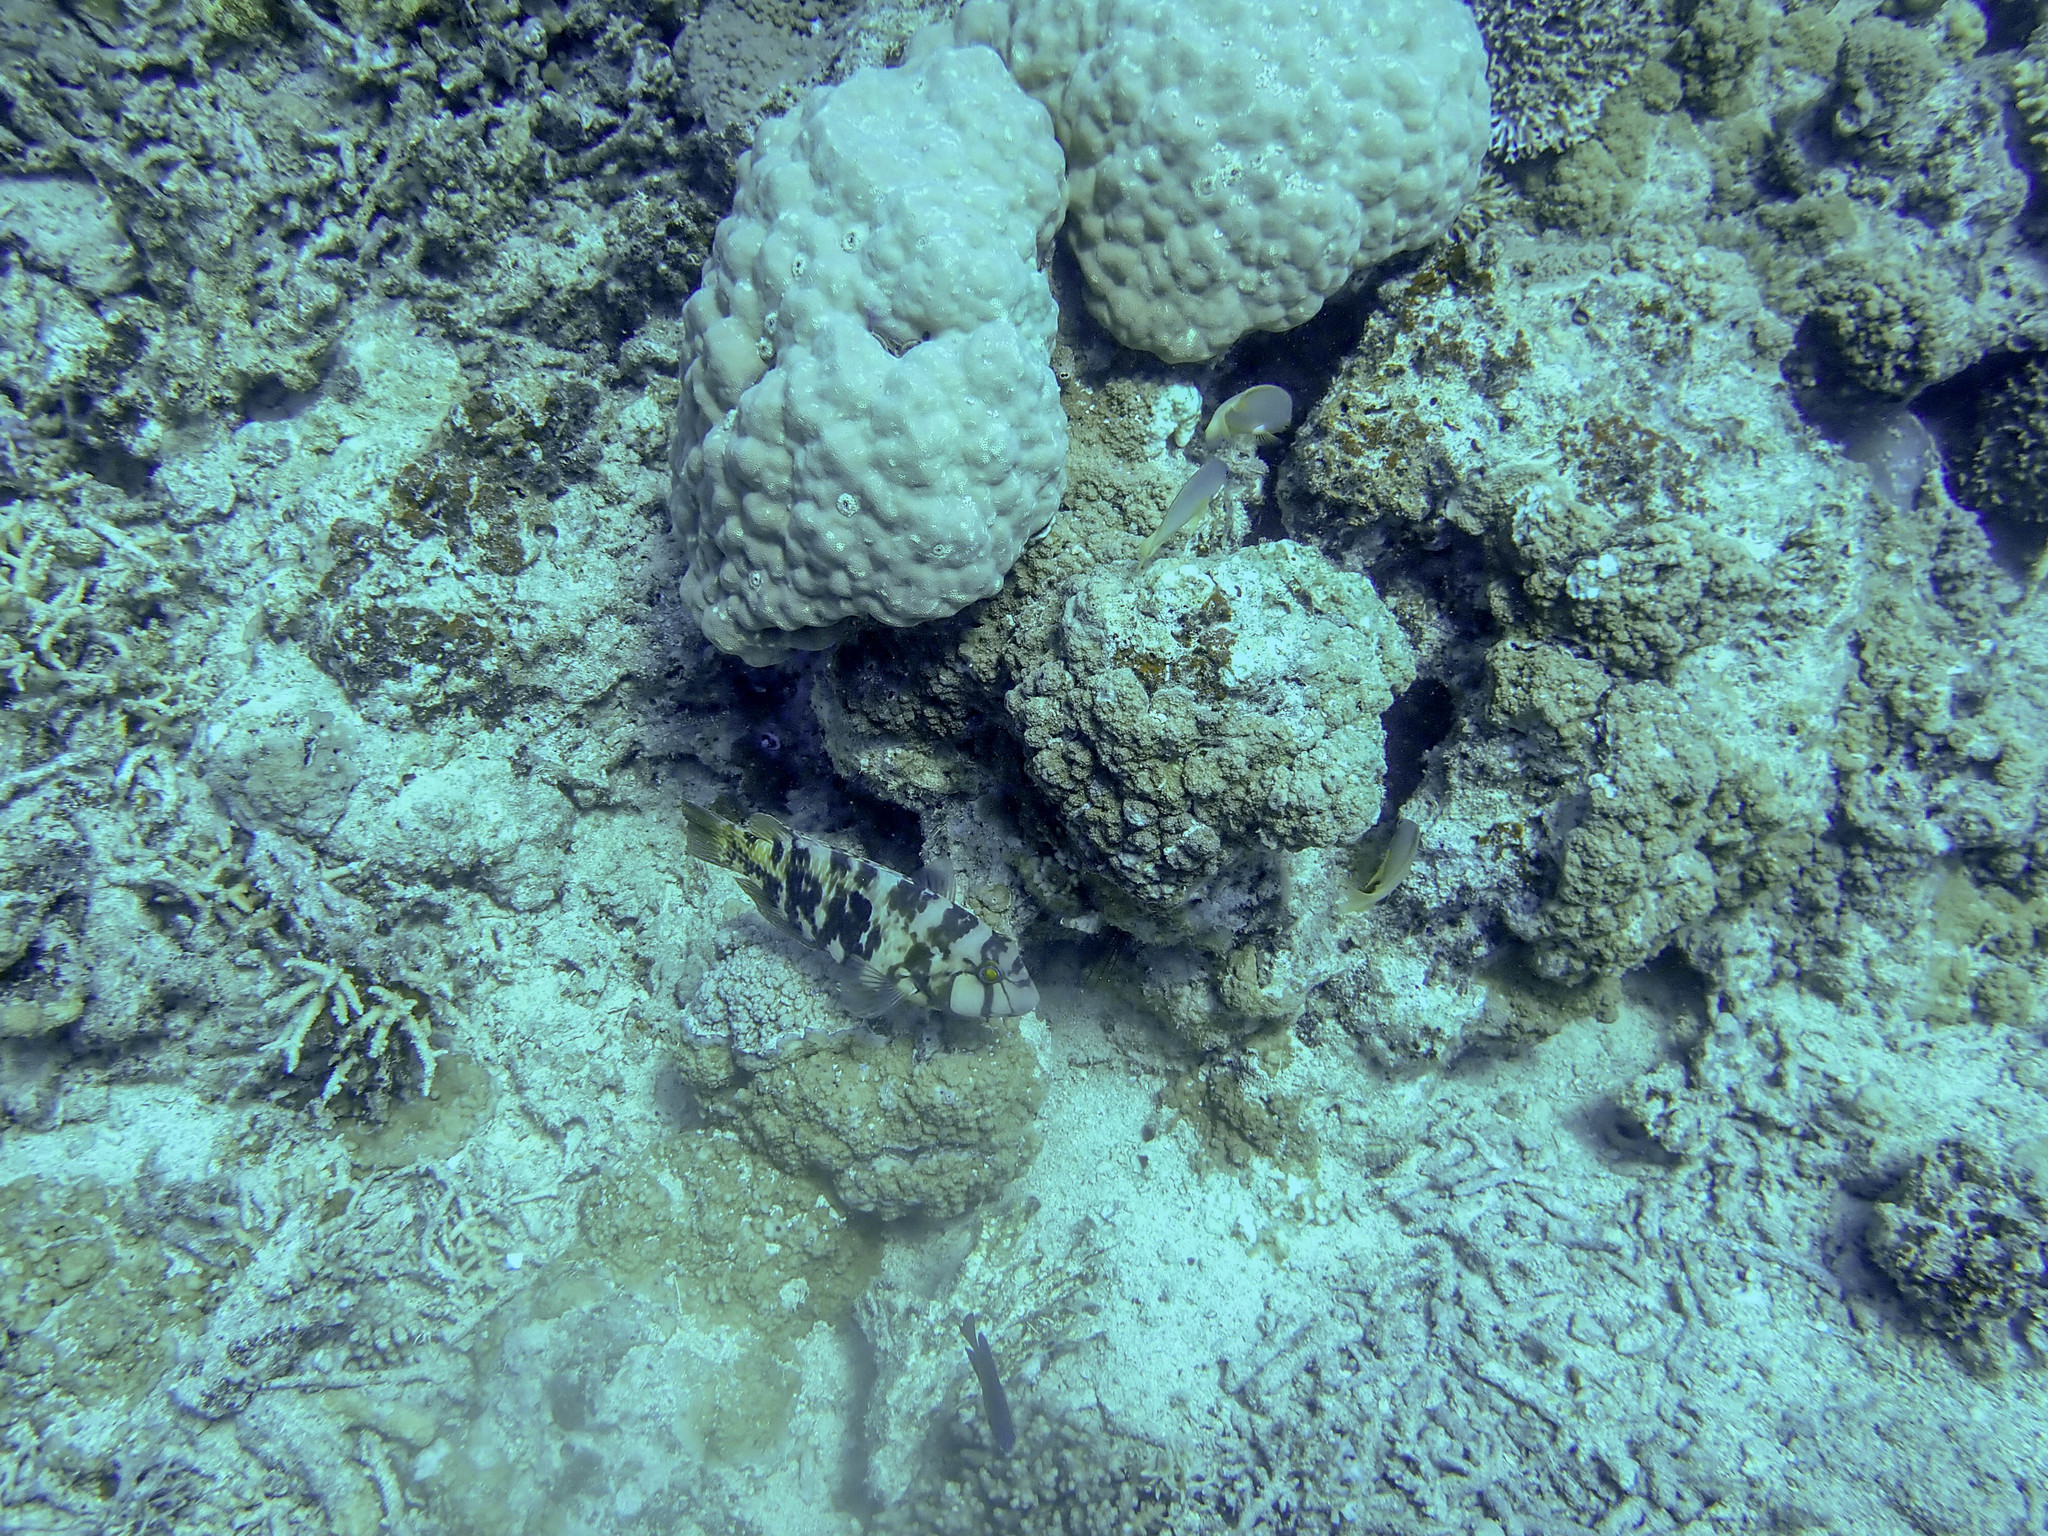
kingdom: Animalia
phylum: Chordata
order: Perciformes
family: Labridae
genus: Choerodon
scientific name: Choerodon graphicus
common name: Graphic tuskfish
